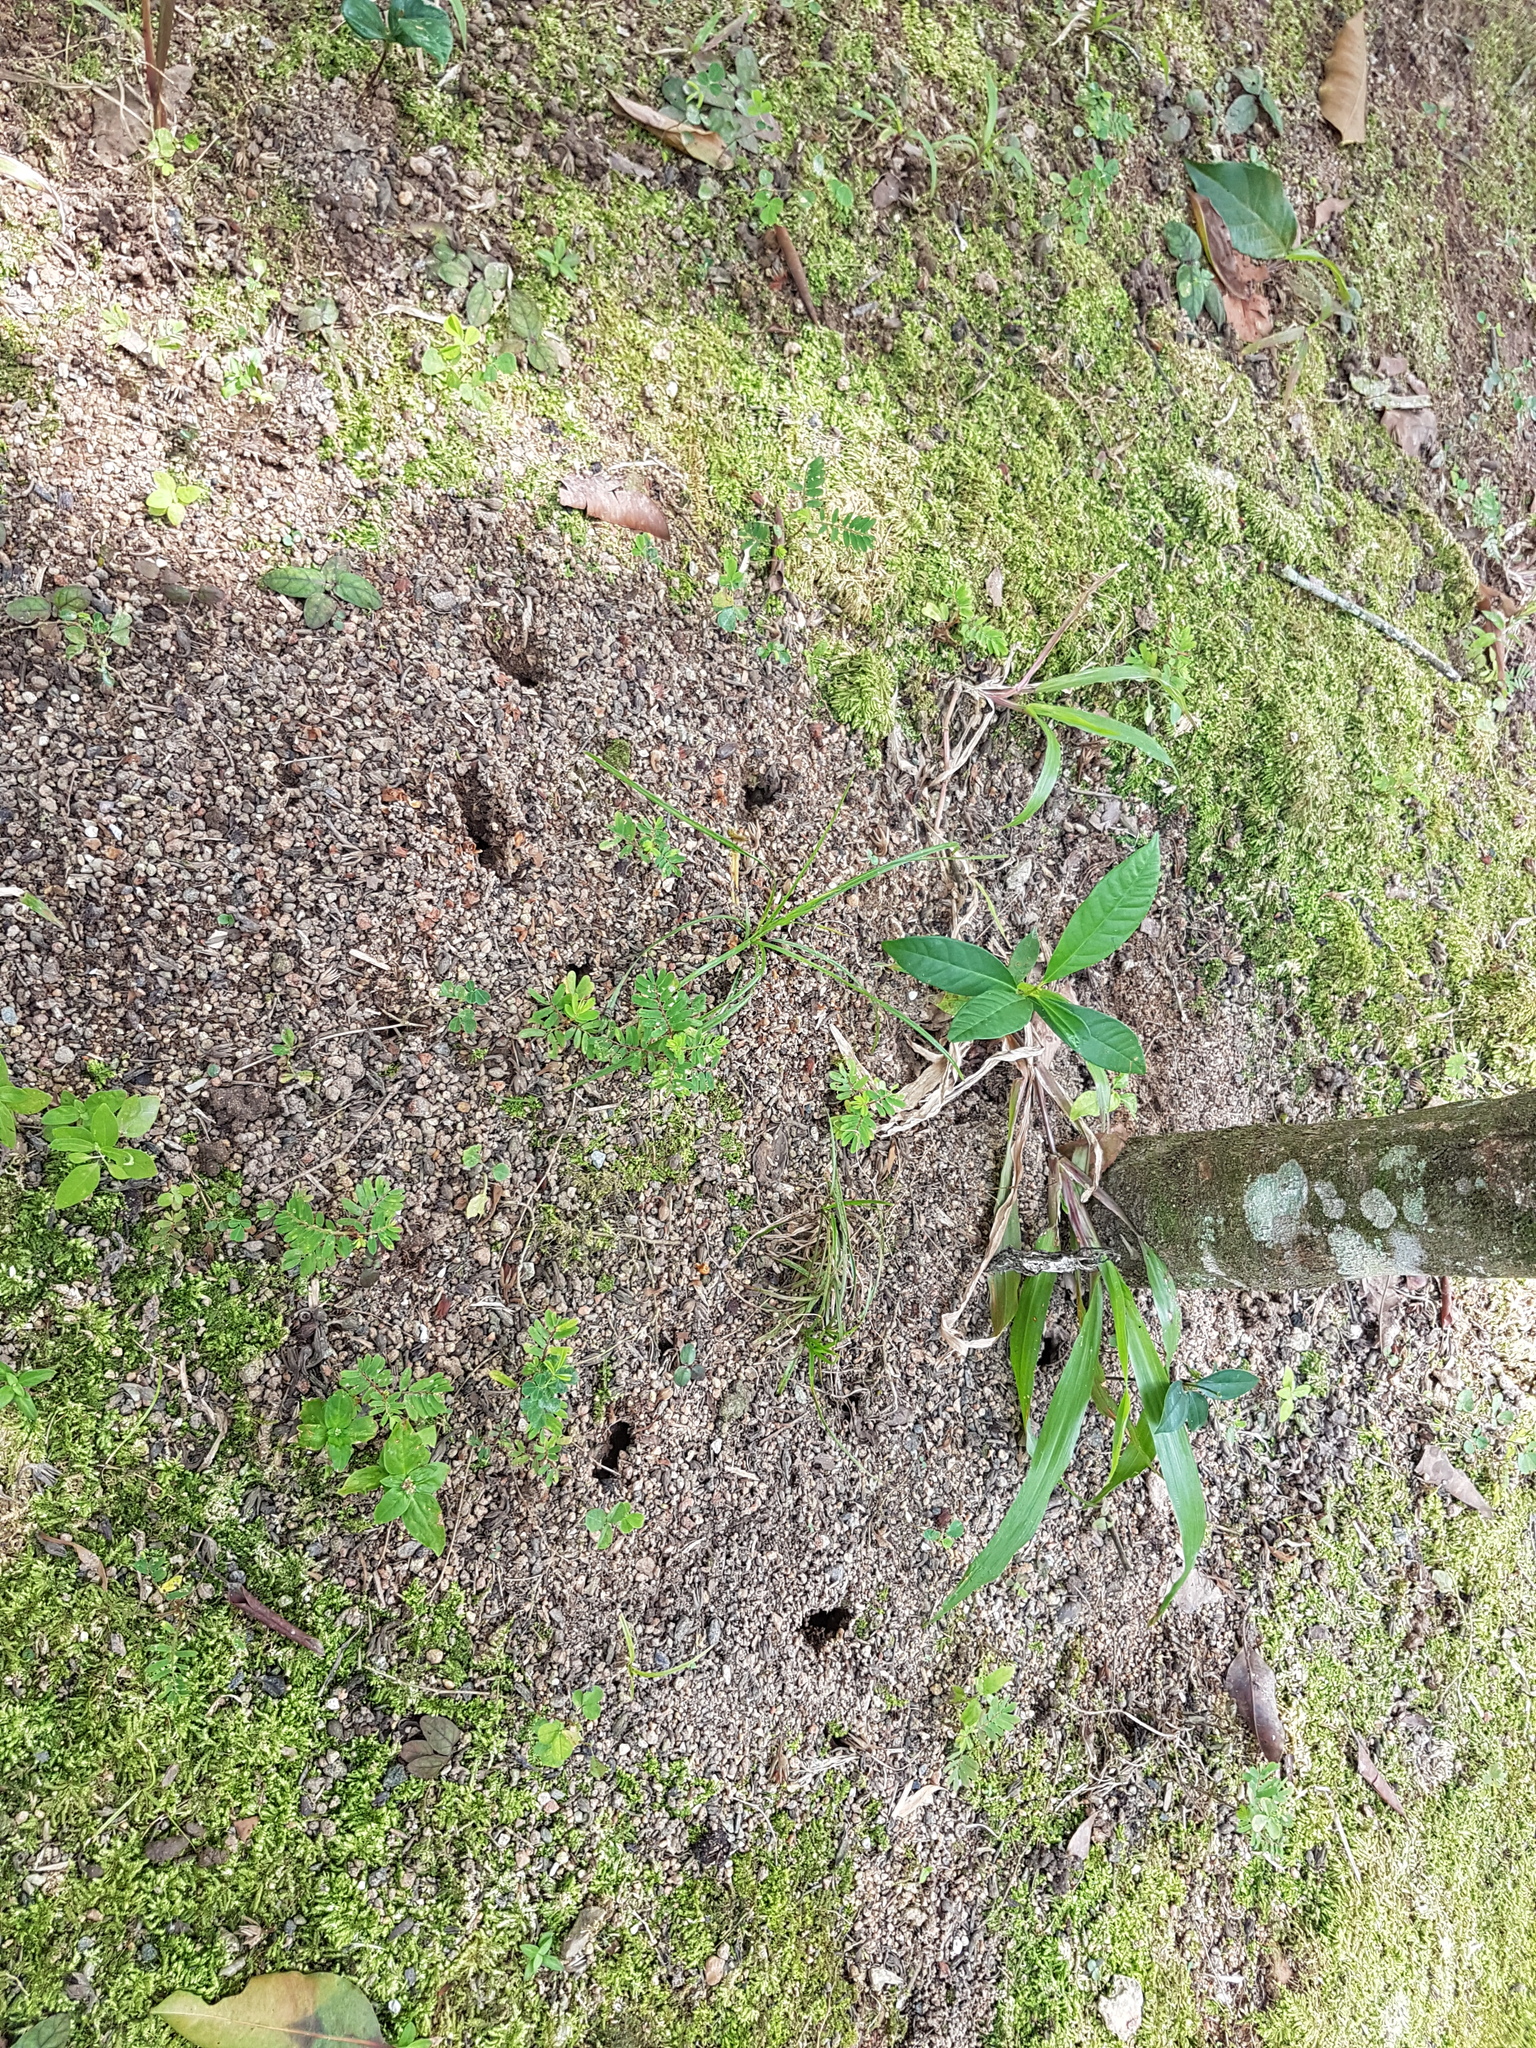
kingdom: Animalia
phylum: Arthropoda
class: Insecta
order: Hymenoptera
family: Formicidae
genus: Odontomachus
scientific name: Odontomachus simillimus
